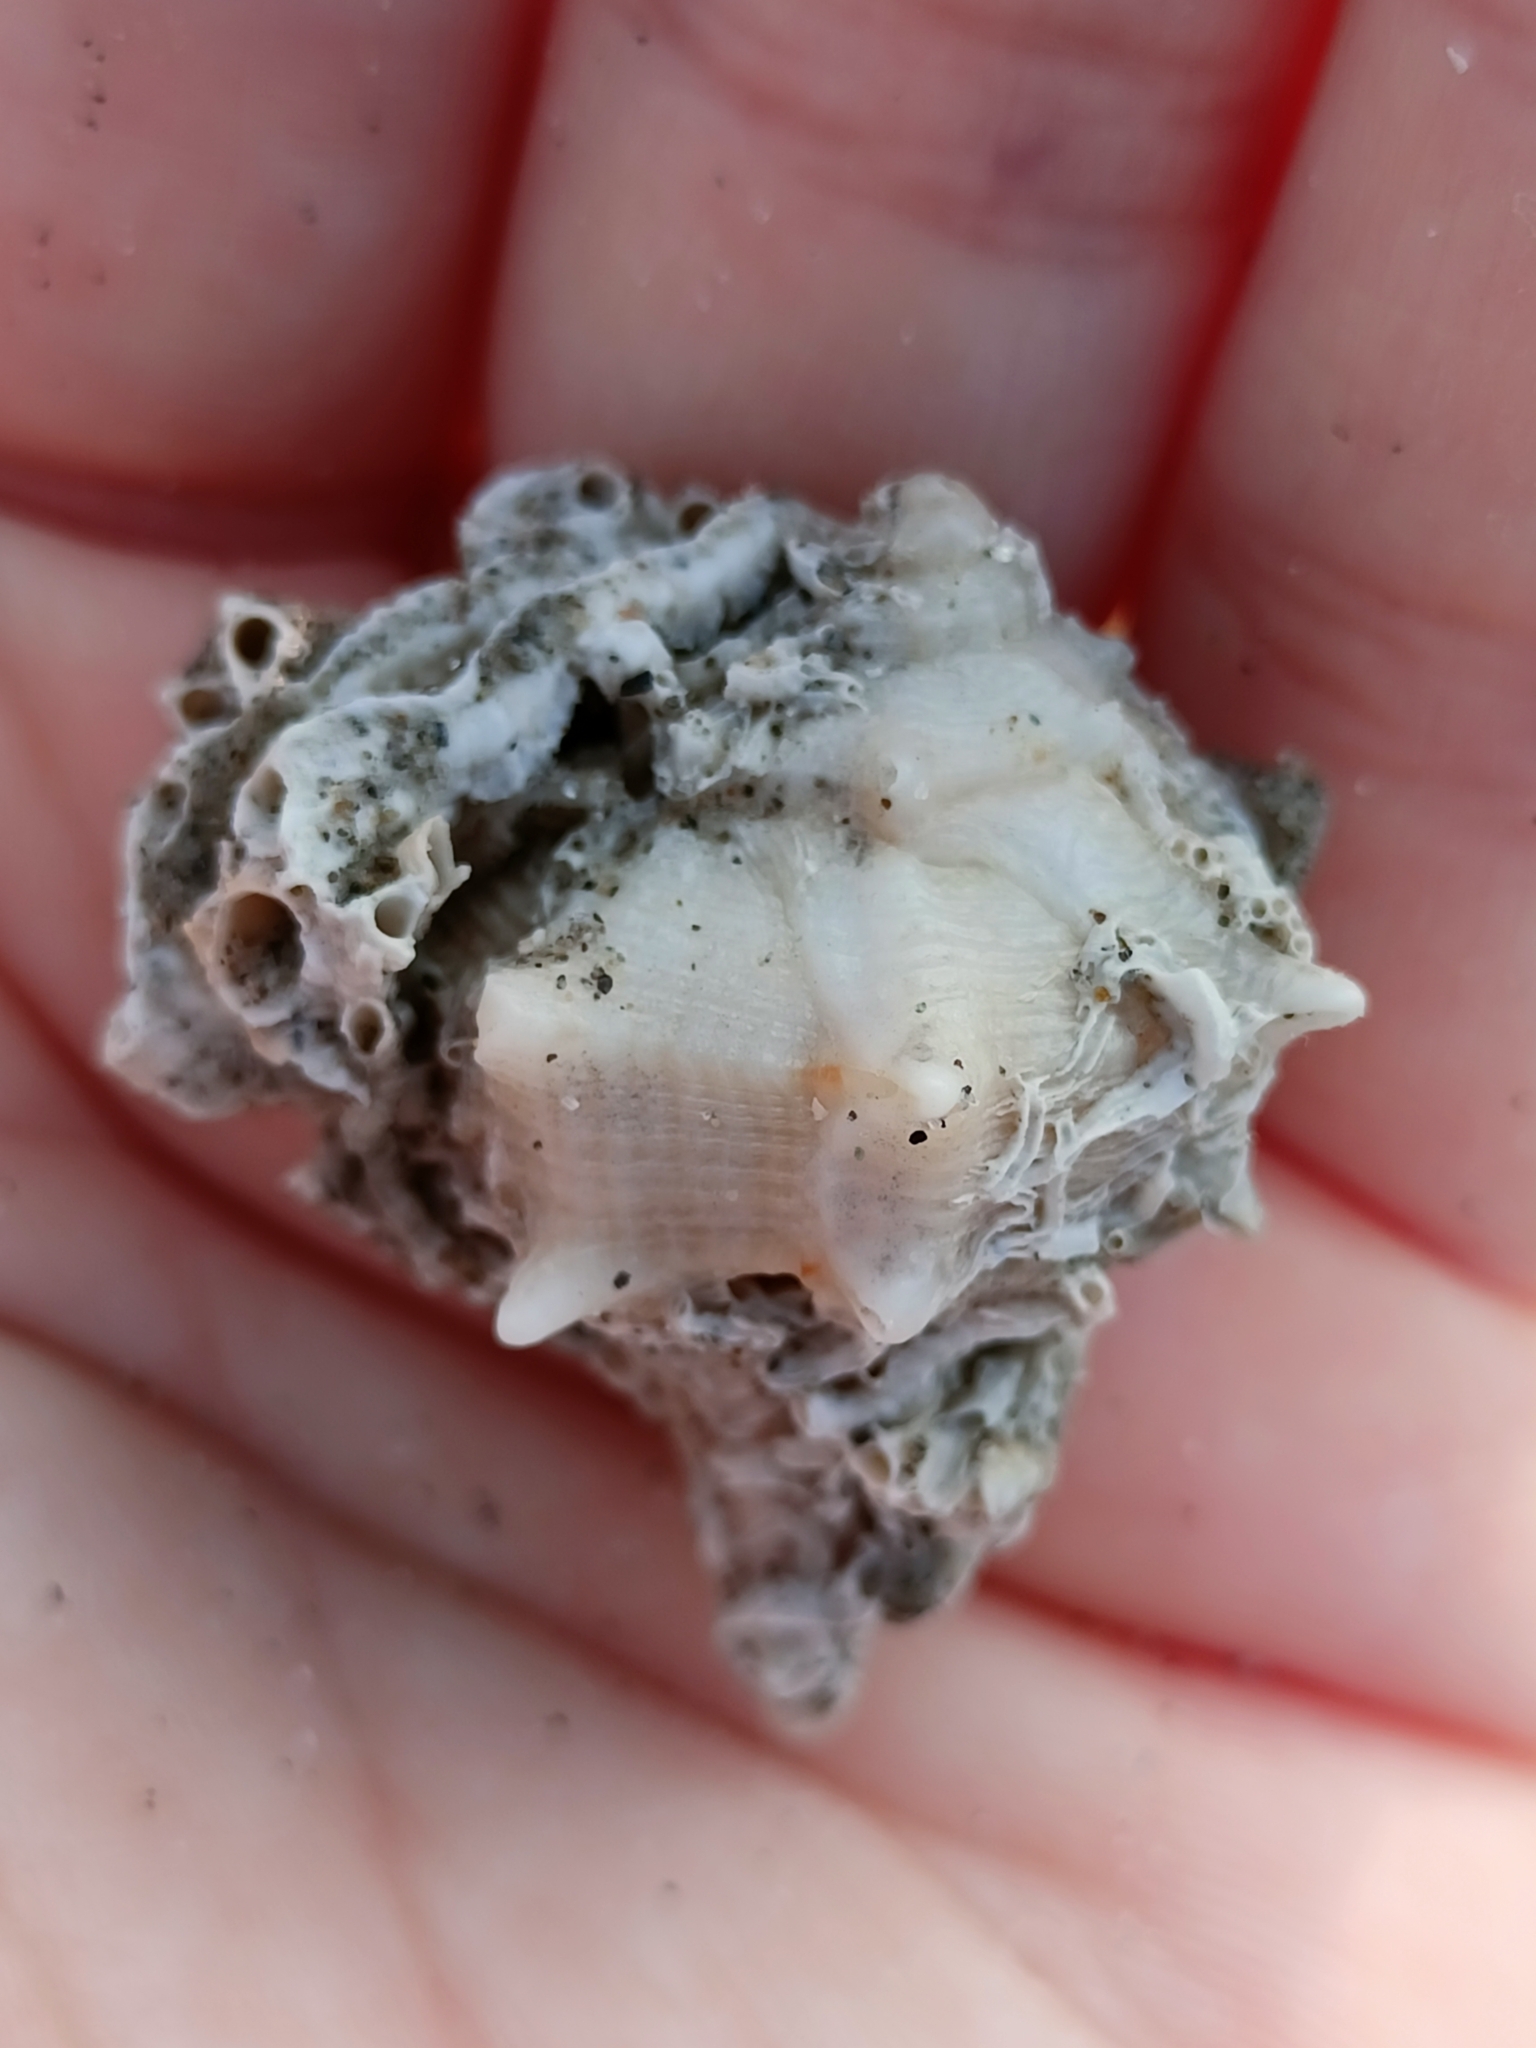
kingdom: Animalia
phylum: Mollusca
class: Gastropoda
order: Neogastropoda
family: Muricidae
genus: Bolinus
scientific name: Bolinus brandaris
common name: Dye murex
